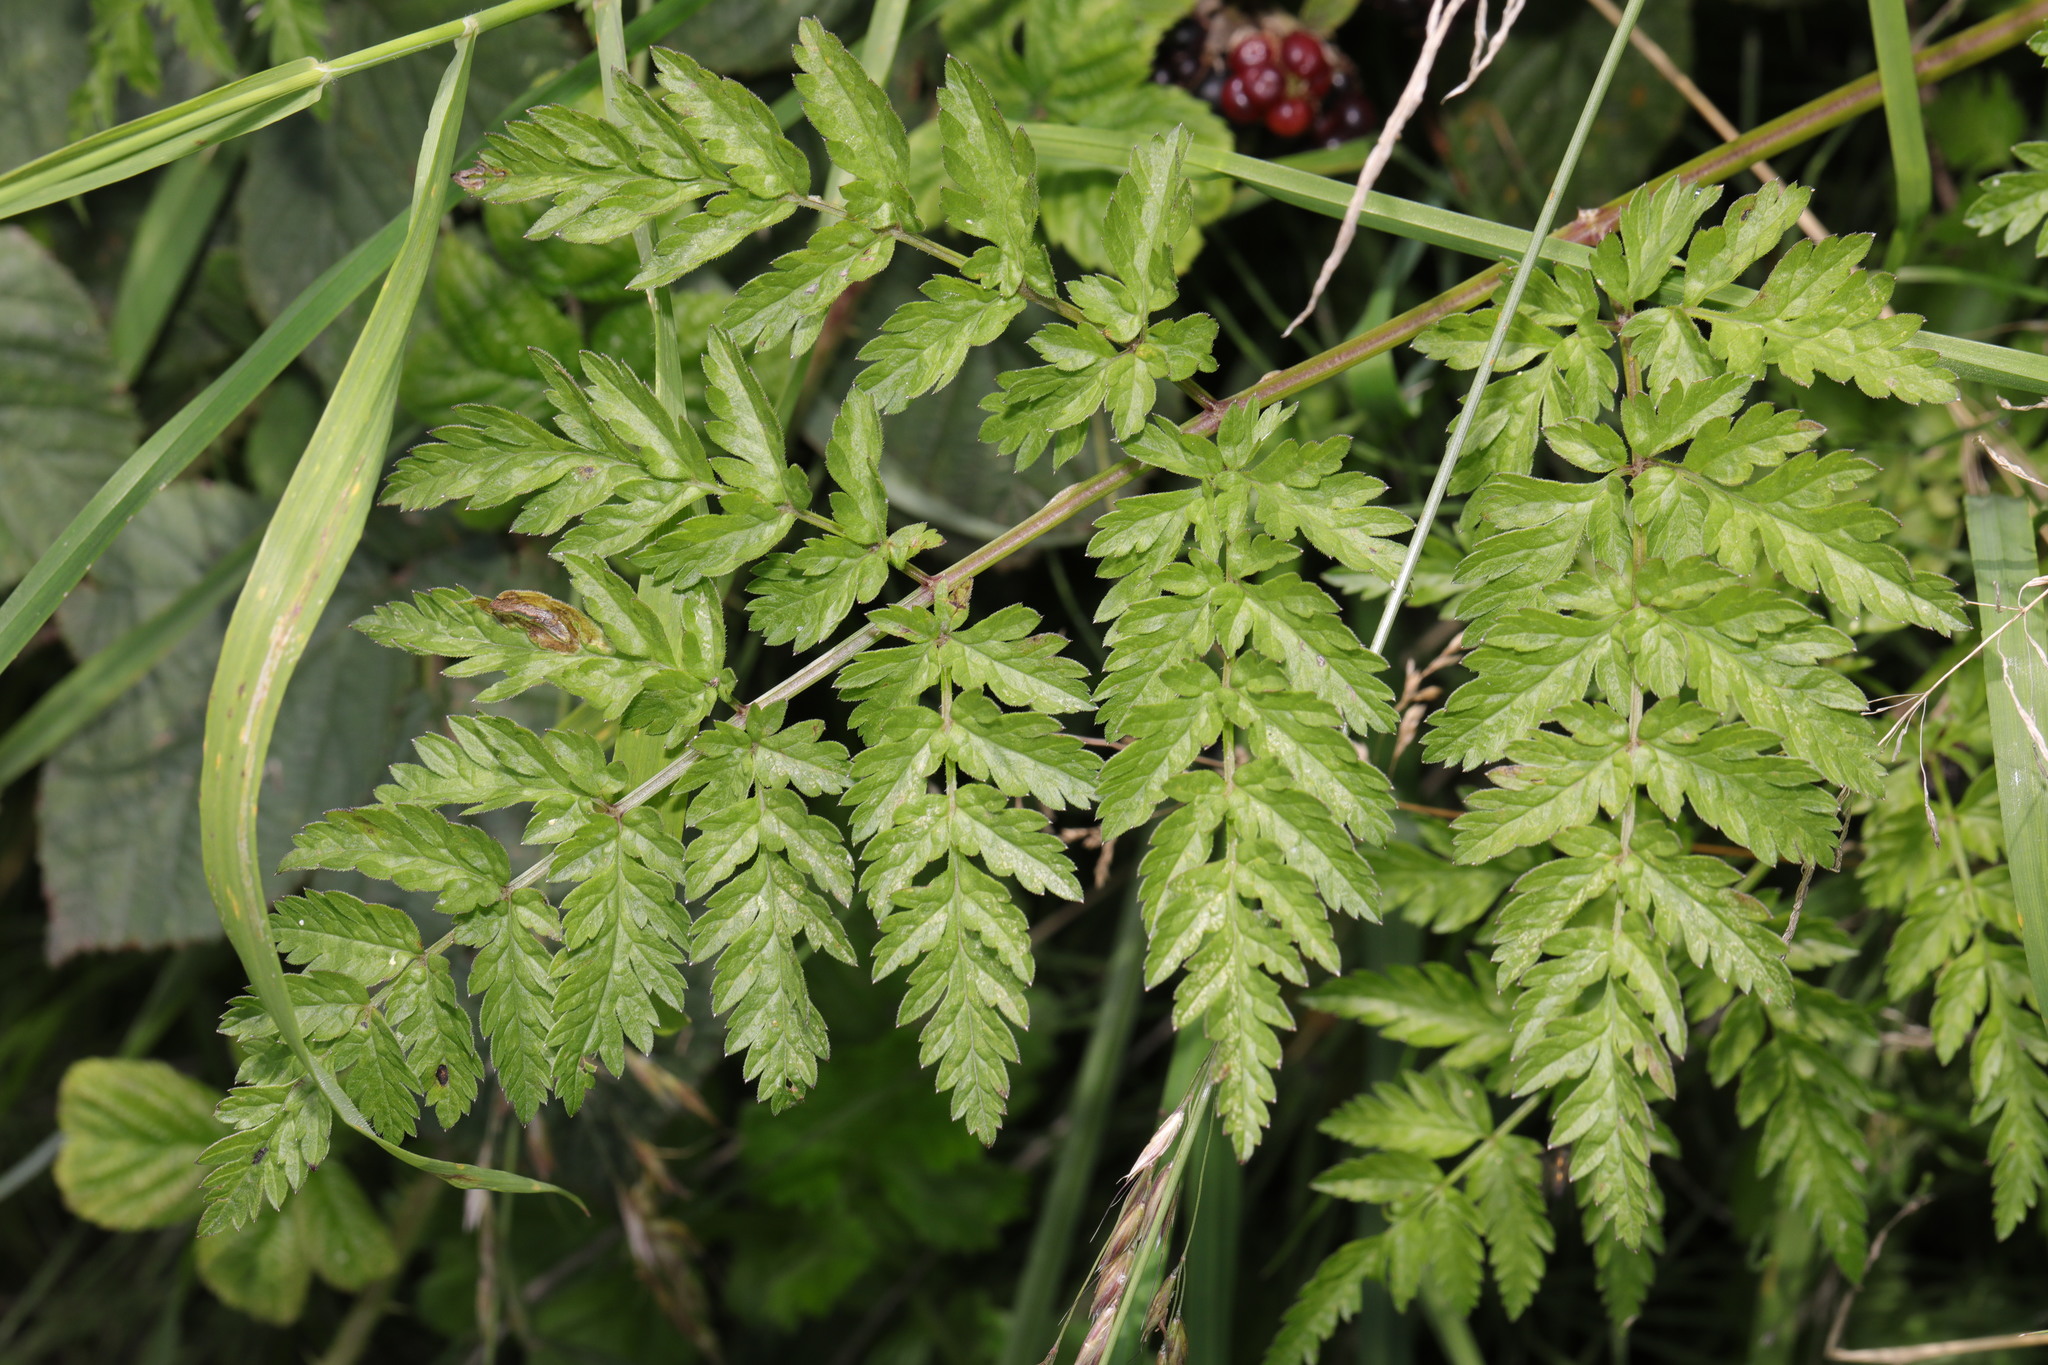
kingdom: Plantae
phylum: Tracheophyta
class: Magnoliopsida
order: Apiales
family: Apiaceae
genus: Anthriscus
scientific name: Anthriscus sylvestris
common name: Cow parsley
